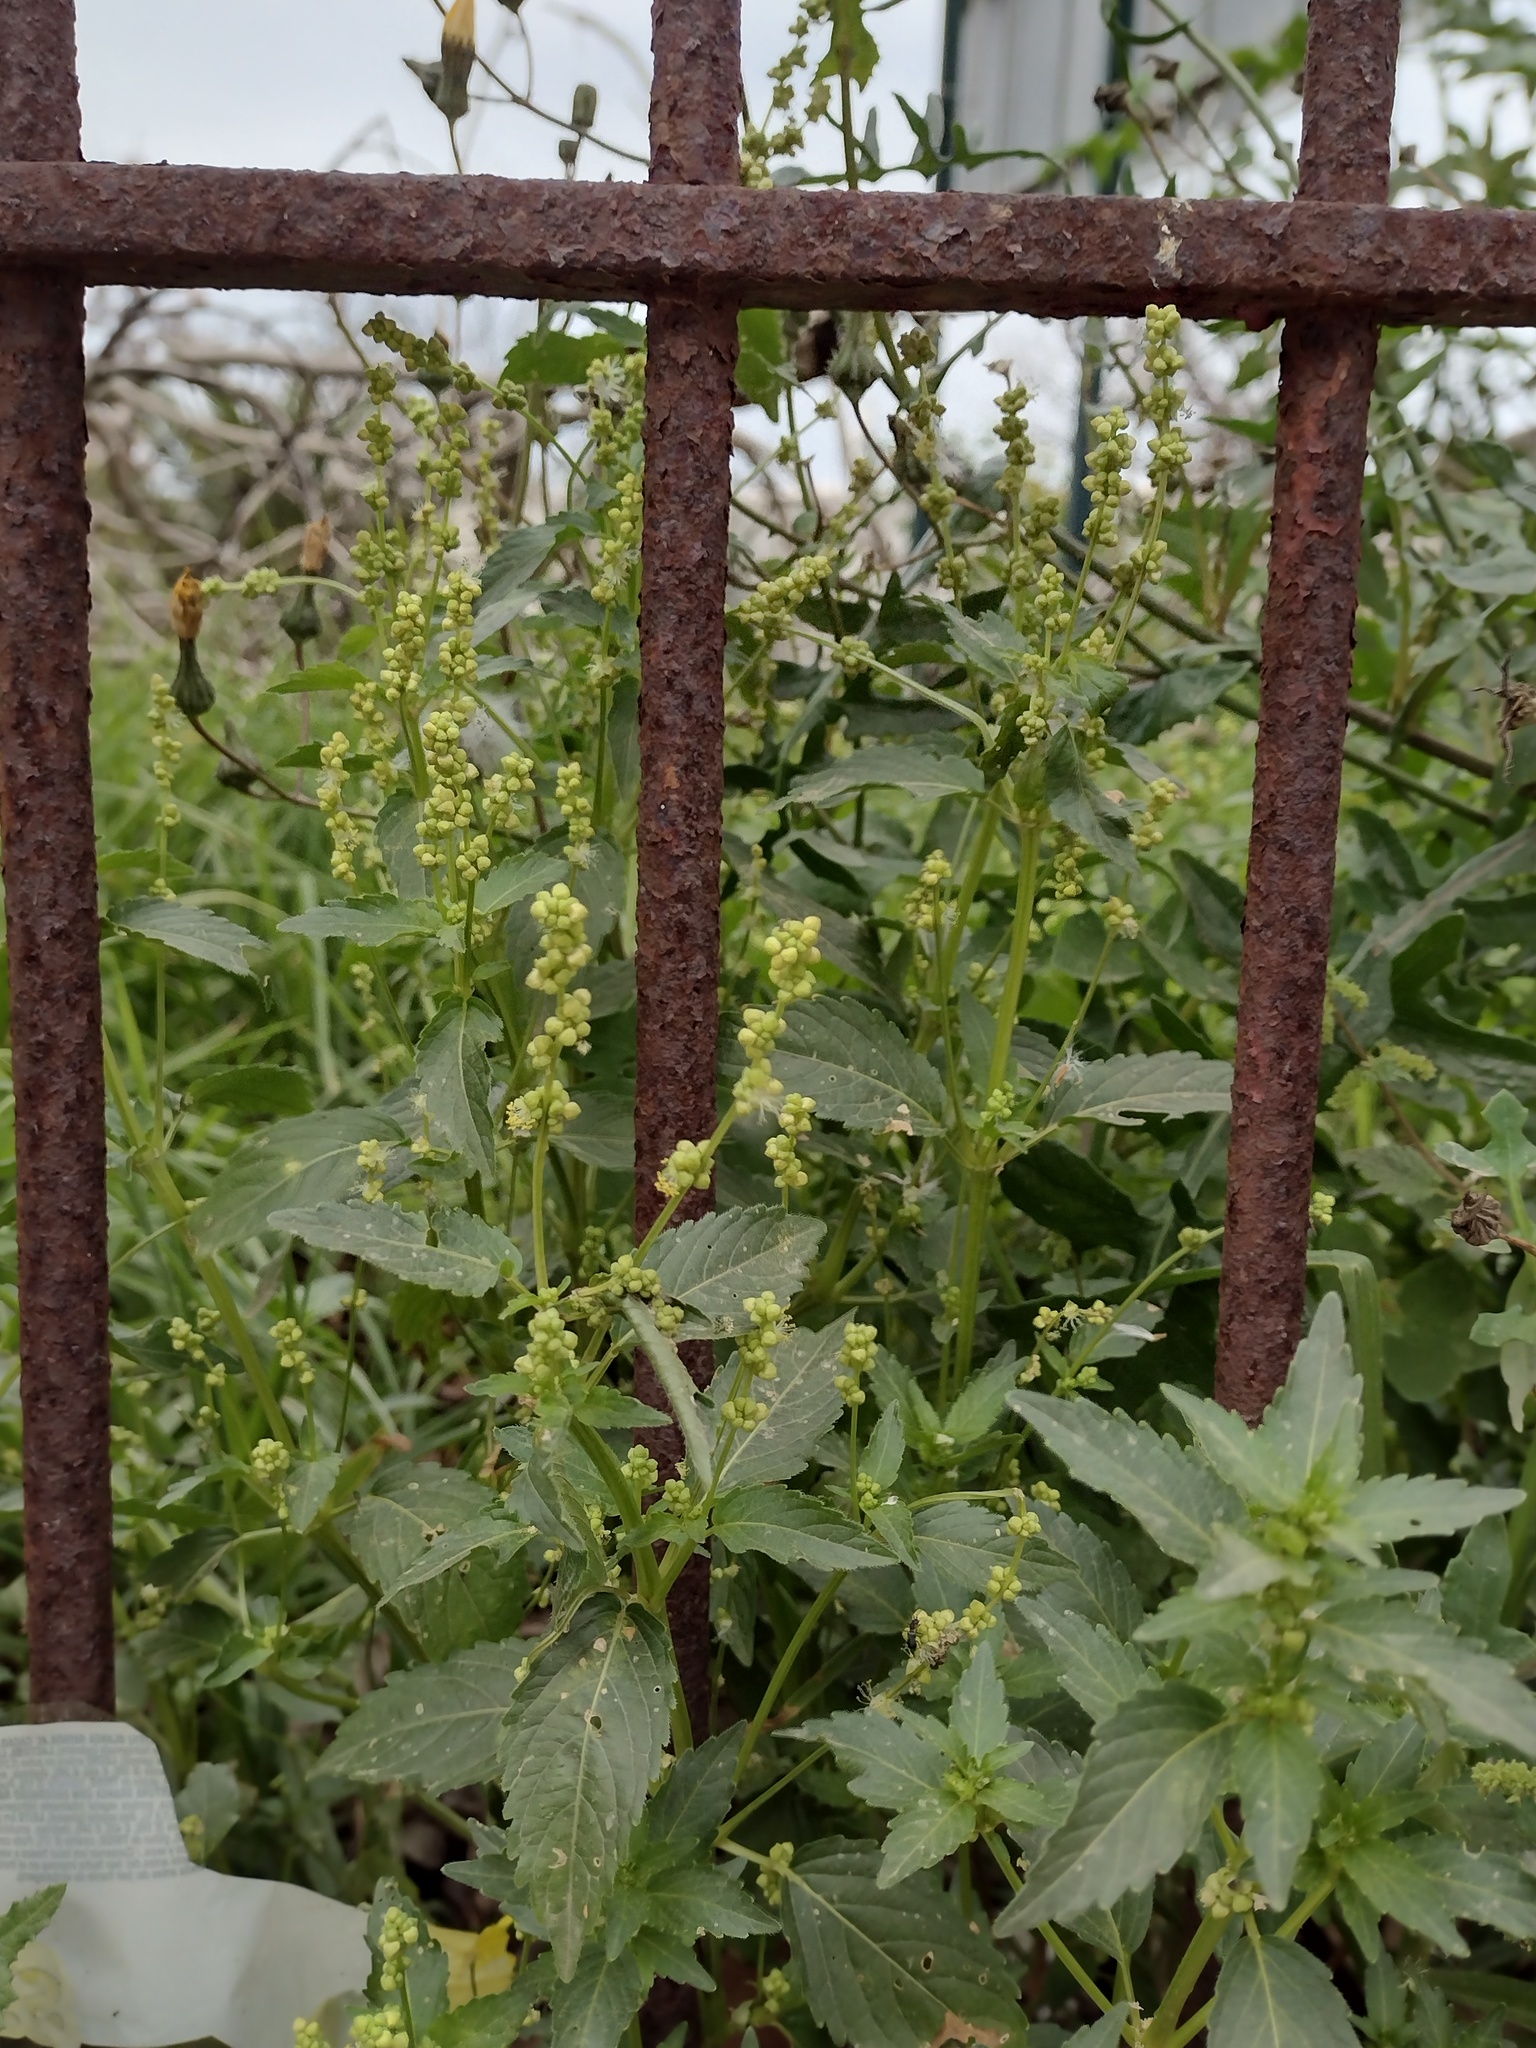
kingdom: Plantae
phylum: Tracheophyta
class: Magnoliopsida
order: Malpighiales
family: Euphorbiaceae
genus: Mercurialis
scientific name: Mercurialis annua
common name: Annual mercury
